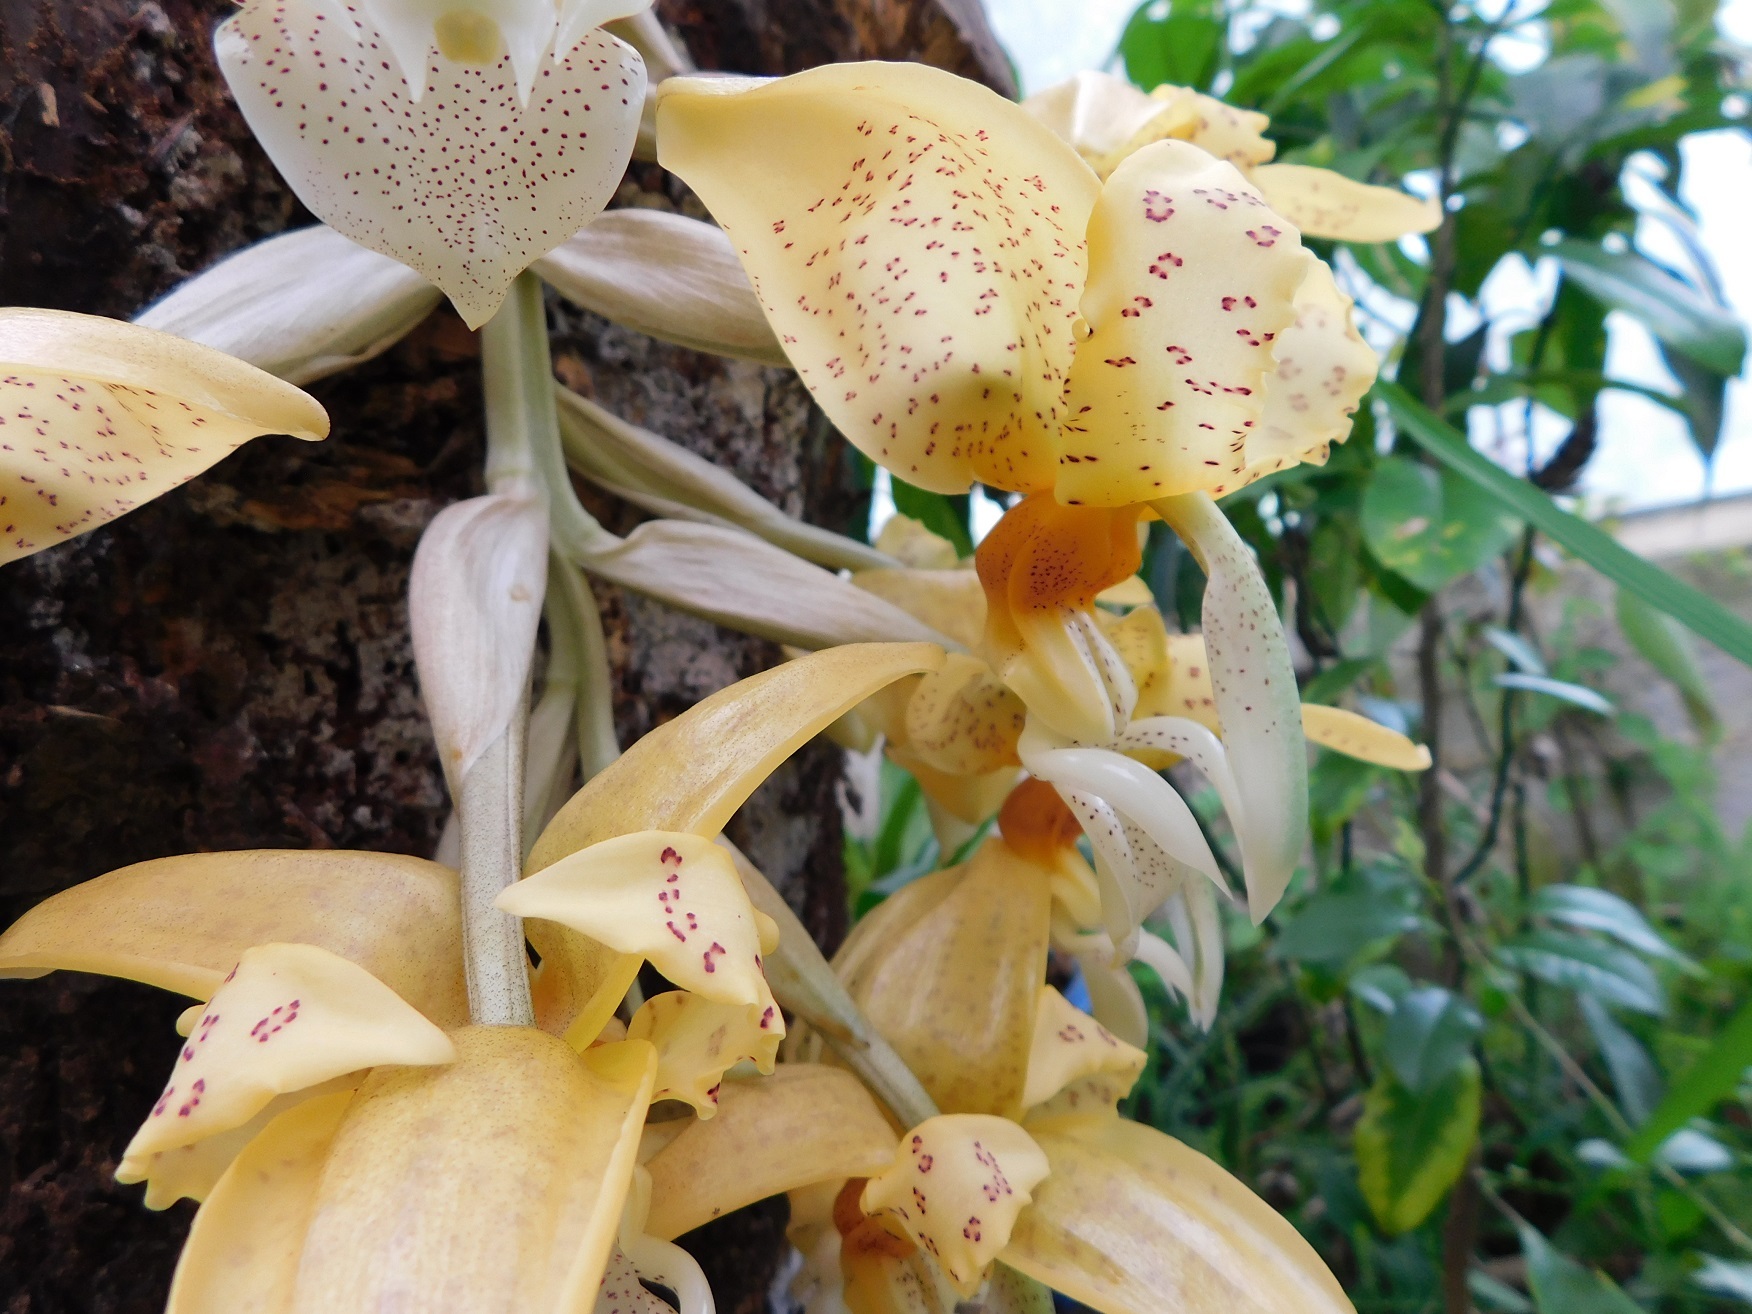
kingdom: Plantae
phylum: Tracheophyta
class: Liliopsida
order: Asparagales
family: Orchidaceae
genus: Stanhopea
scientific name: Stanhopea graveolens
